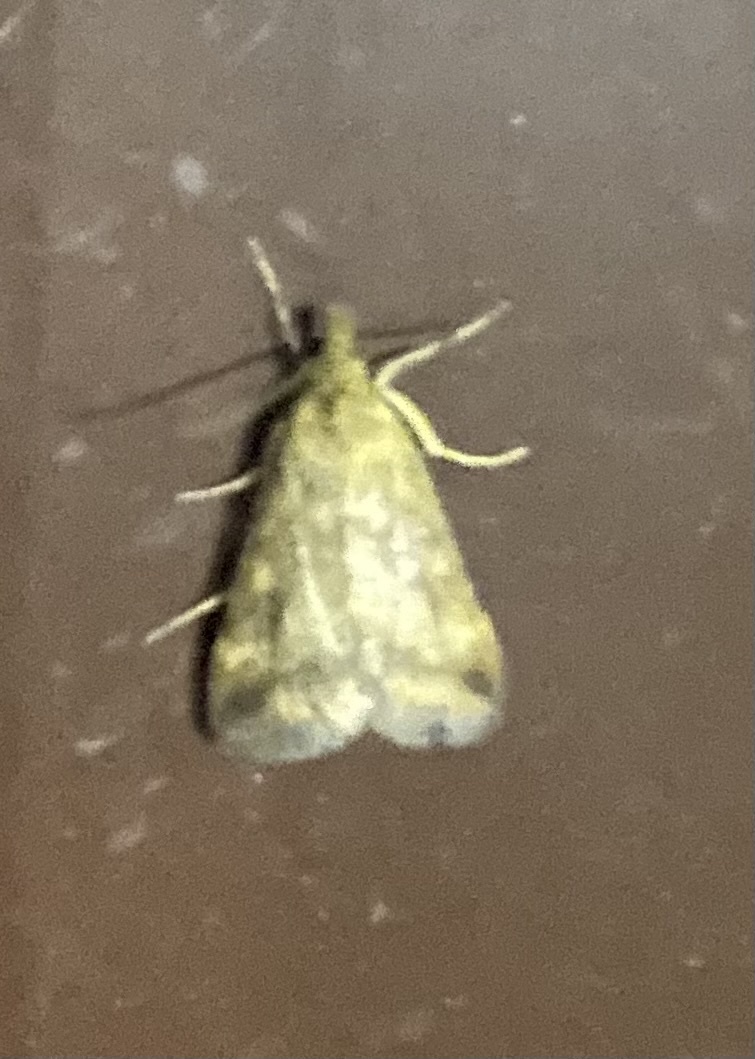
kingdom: Animalia
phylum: Arthropoda
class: Insecta
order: Lepidoptera
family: Crambidae
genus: Pyrausta
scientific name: Pyrausta despicata
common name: Straw-barred pearl
